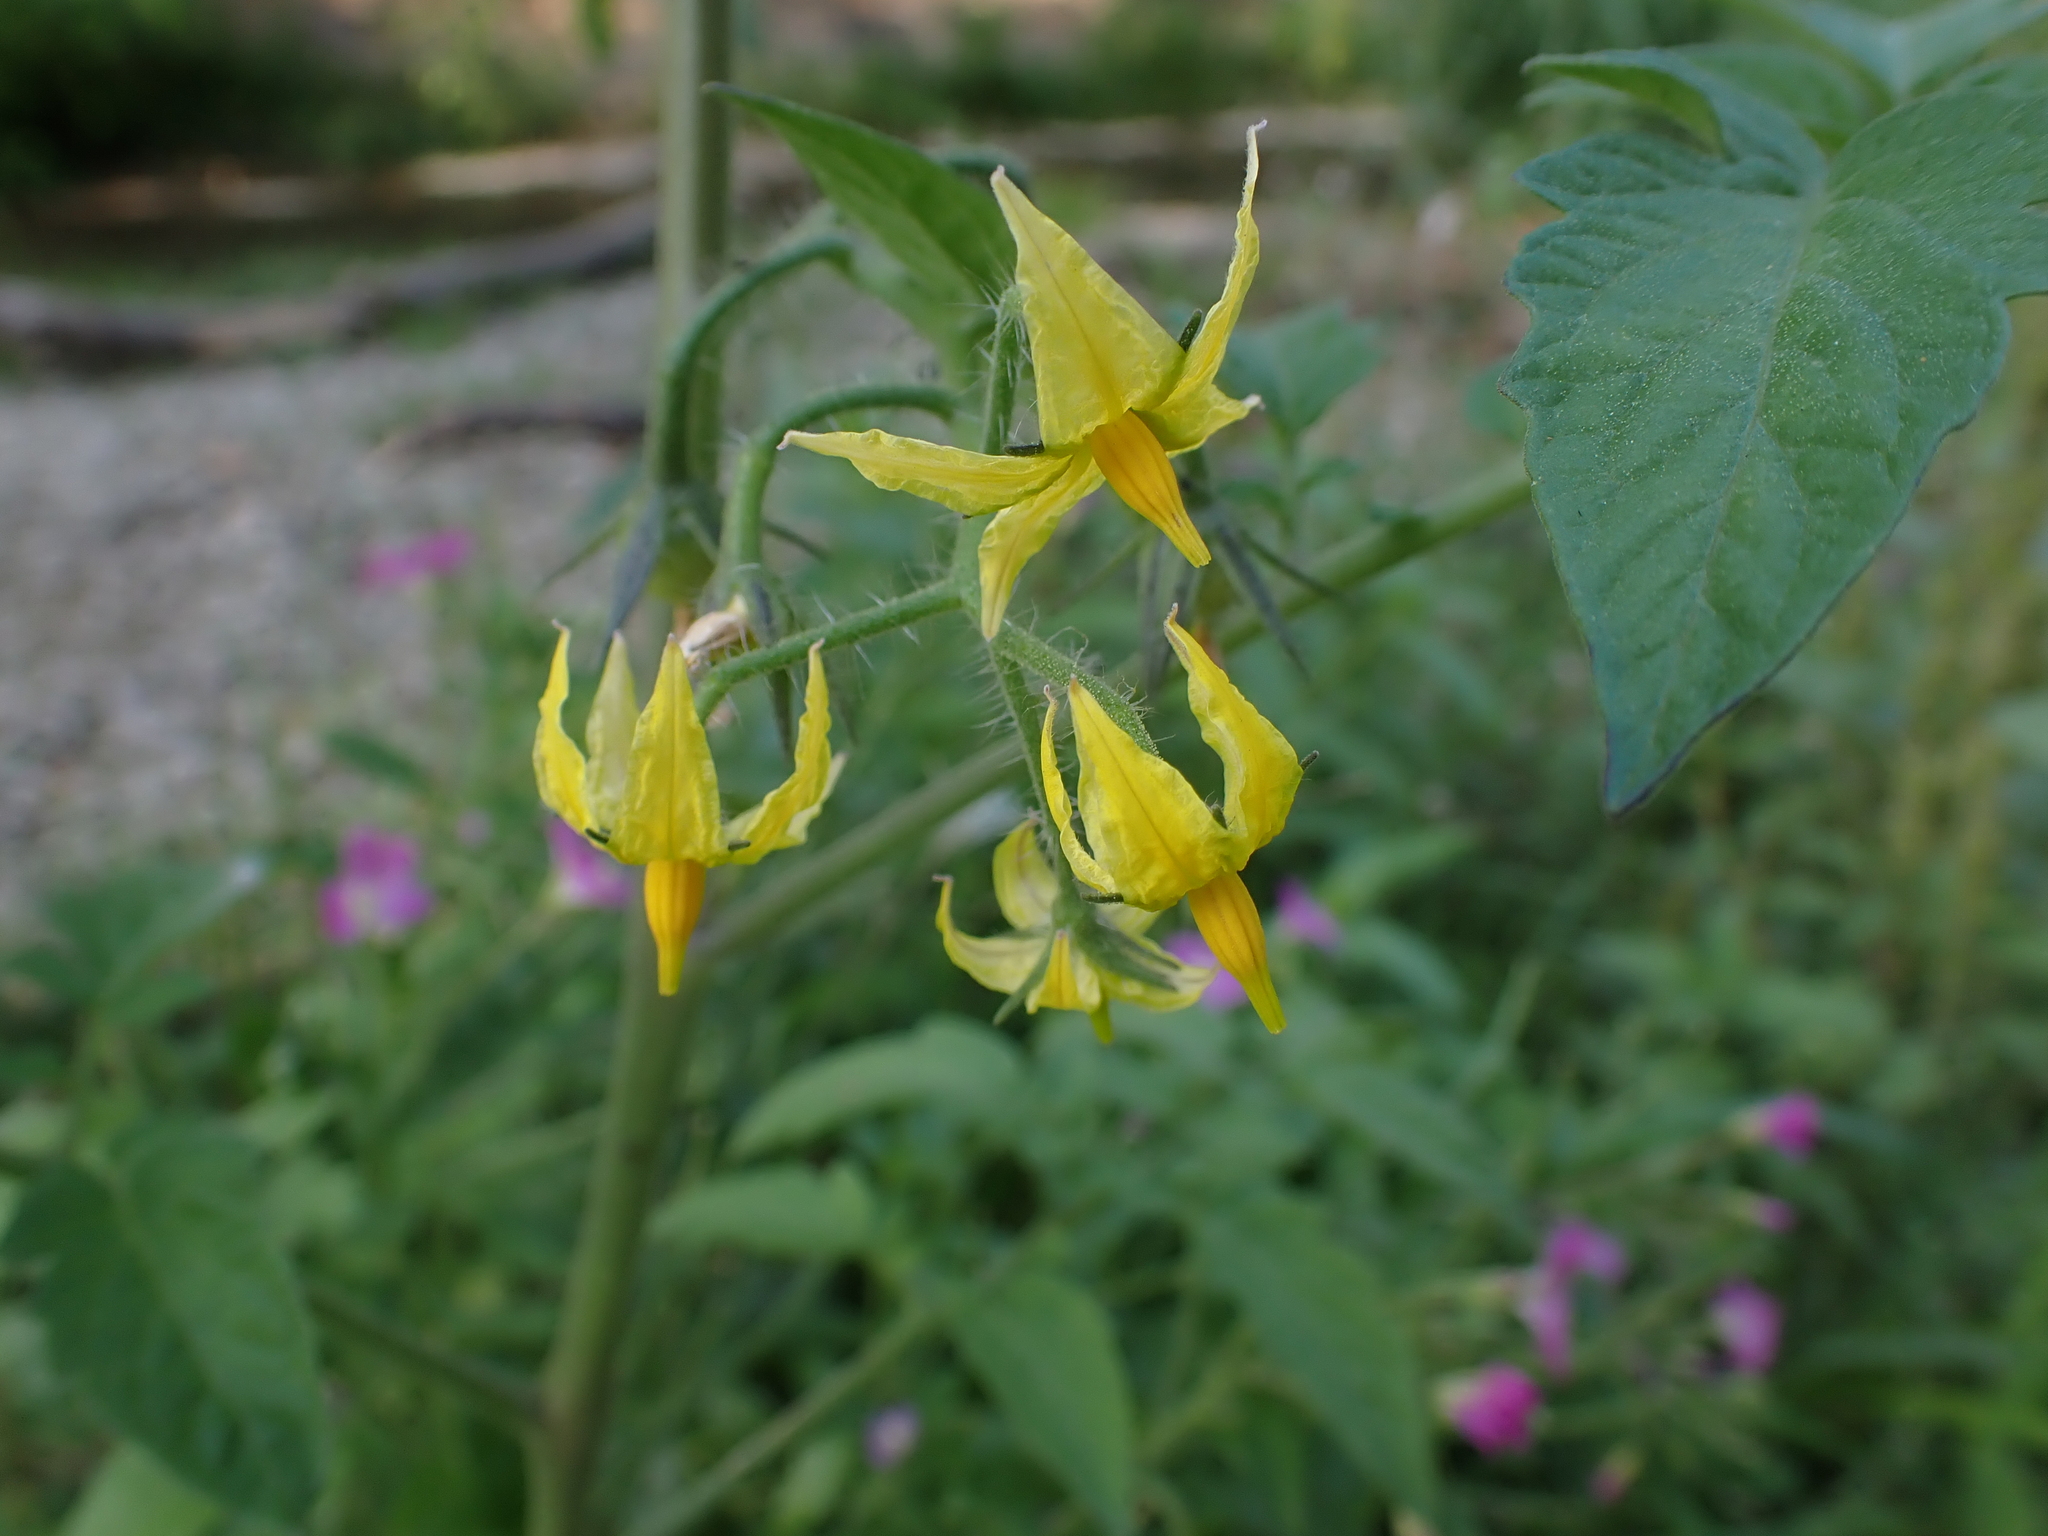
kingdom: Plantae
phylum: Tracheophyta
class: Magnoliopsida
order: Solanales
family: Solanaceae
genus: Solanum
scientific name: Solanum lycopersicum
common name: Garden tomato
